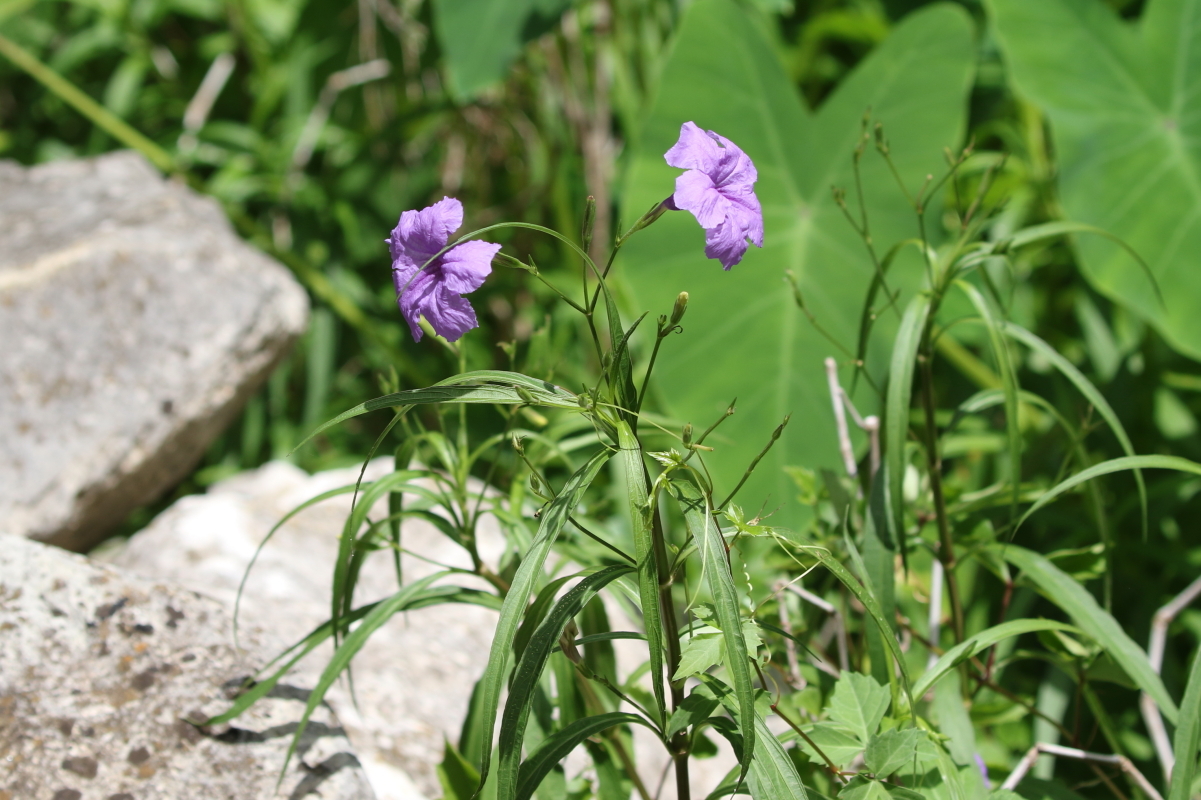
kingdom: Plantae
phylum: Tracheophyta
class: Magnoliopsida
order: Lamiales
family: Acanthaceae
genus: Ruellia
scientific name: Ruellia simplex
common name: Softseed wild petunia
